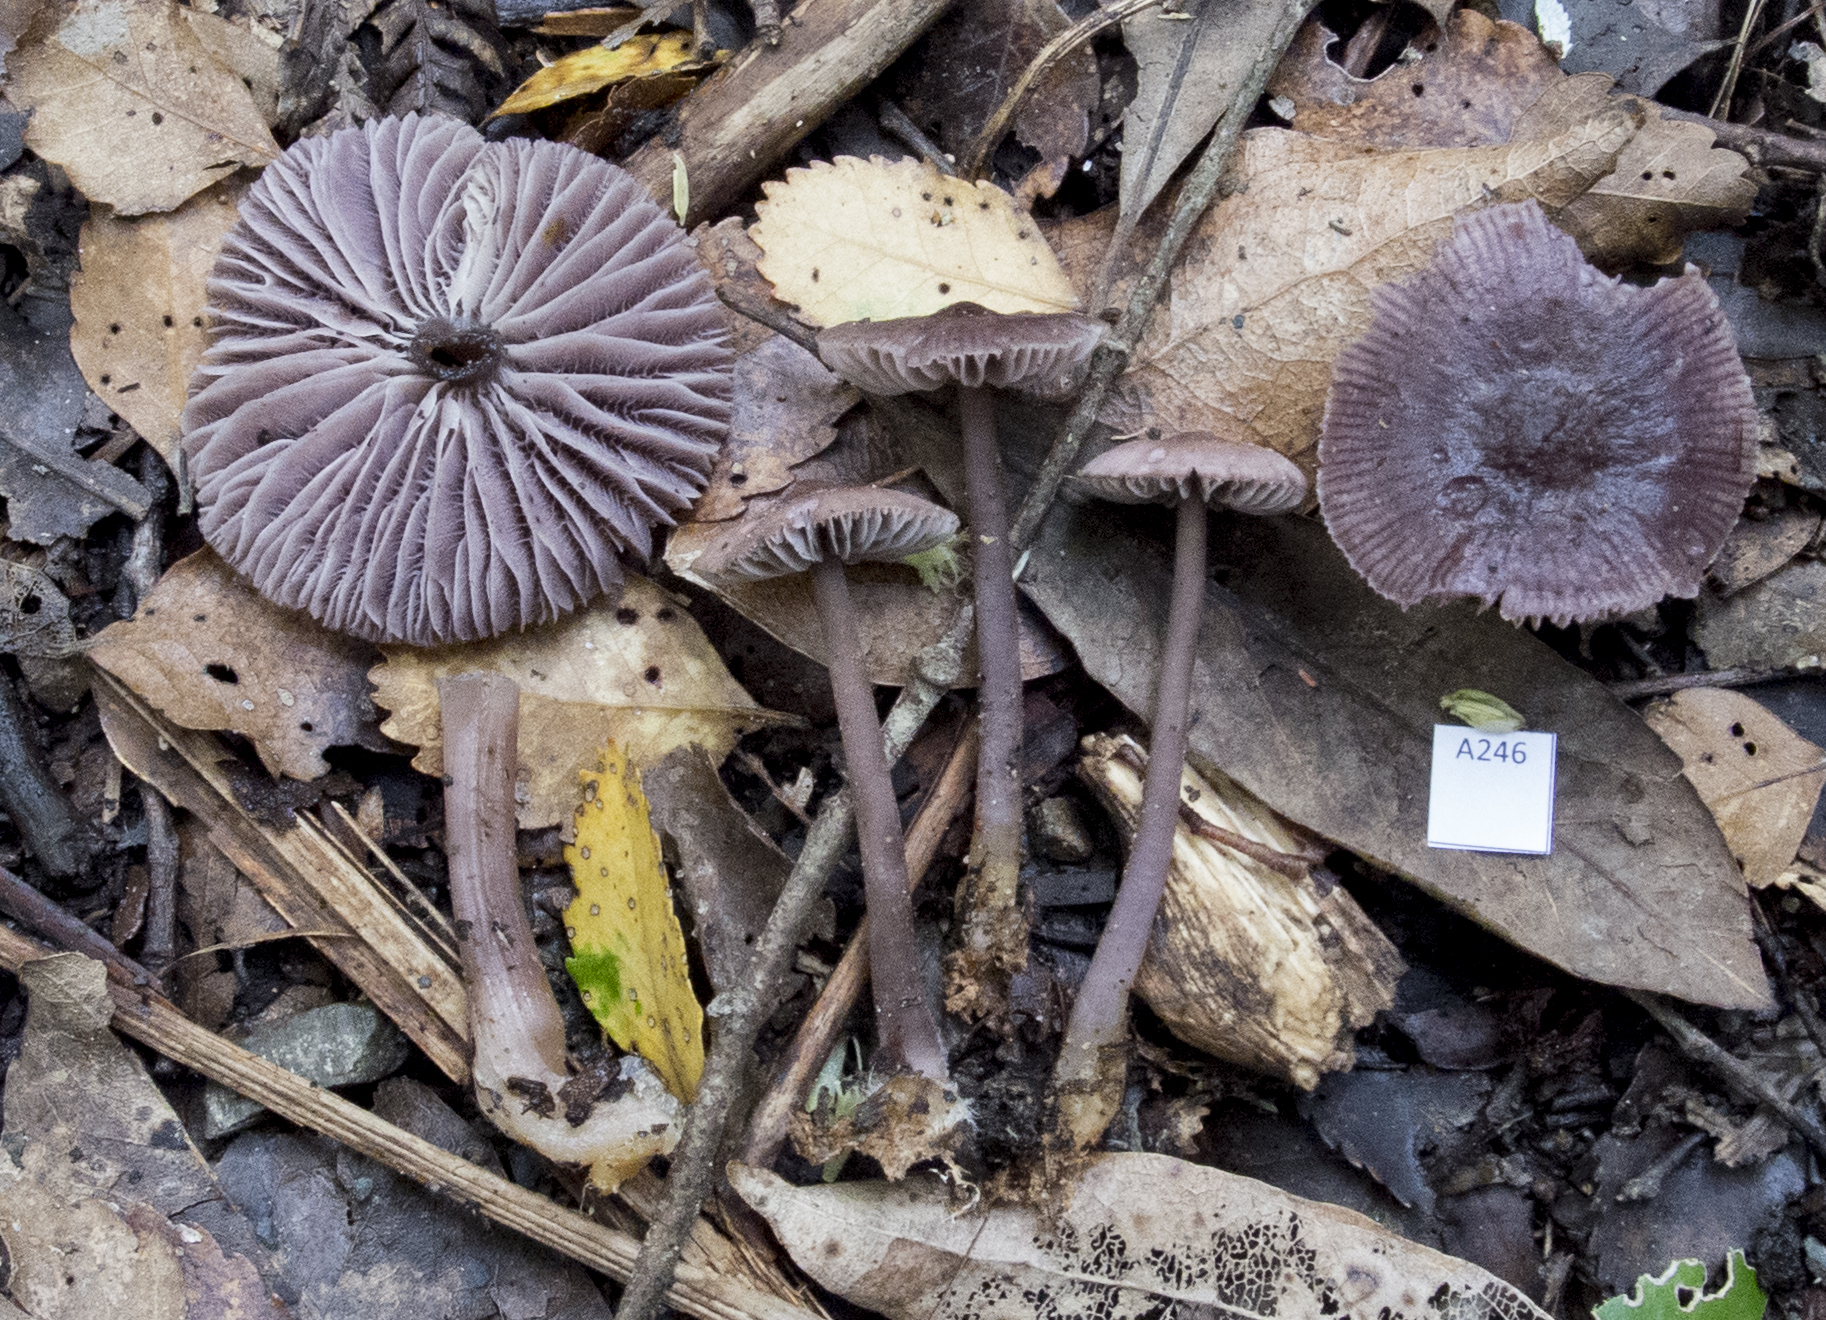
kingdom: Fungi
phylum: Basidiomycota
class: Agaricomycetes
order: Agaricales
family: Mycenaceae
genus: Mycena
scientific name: Mycena vinacea
